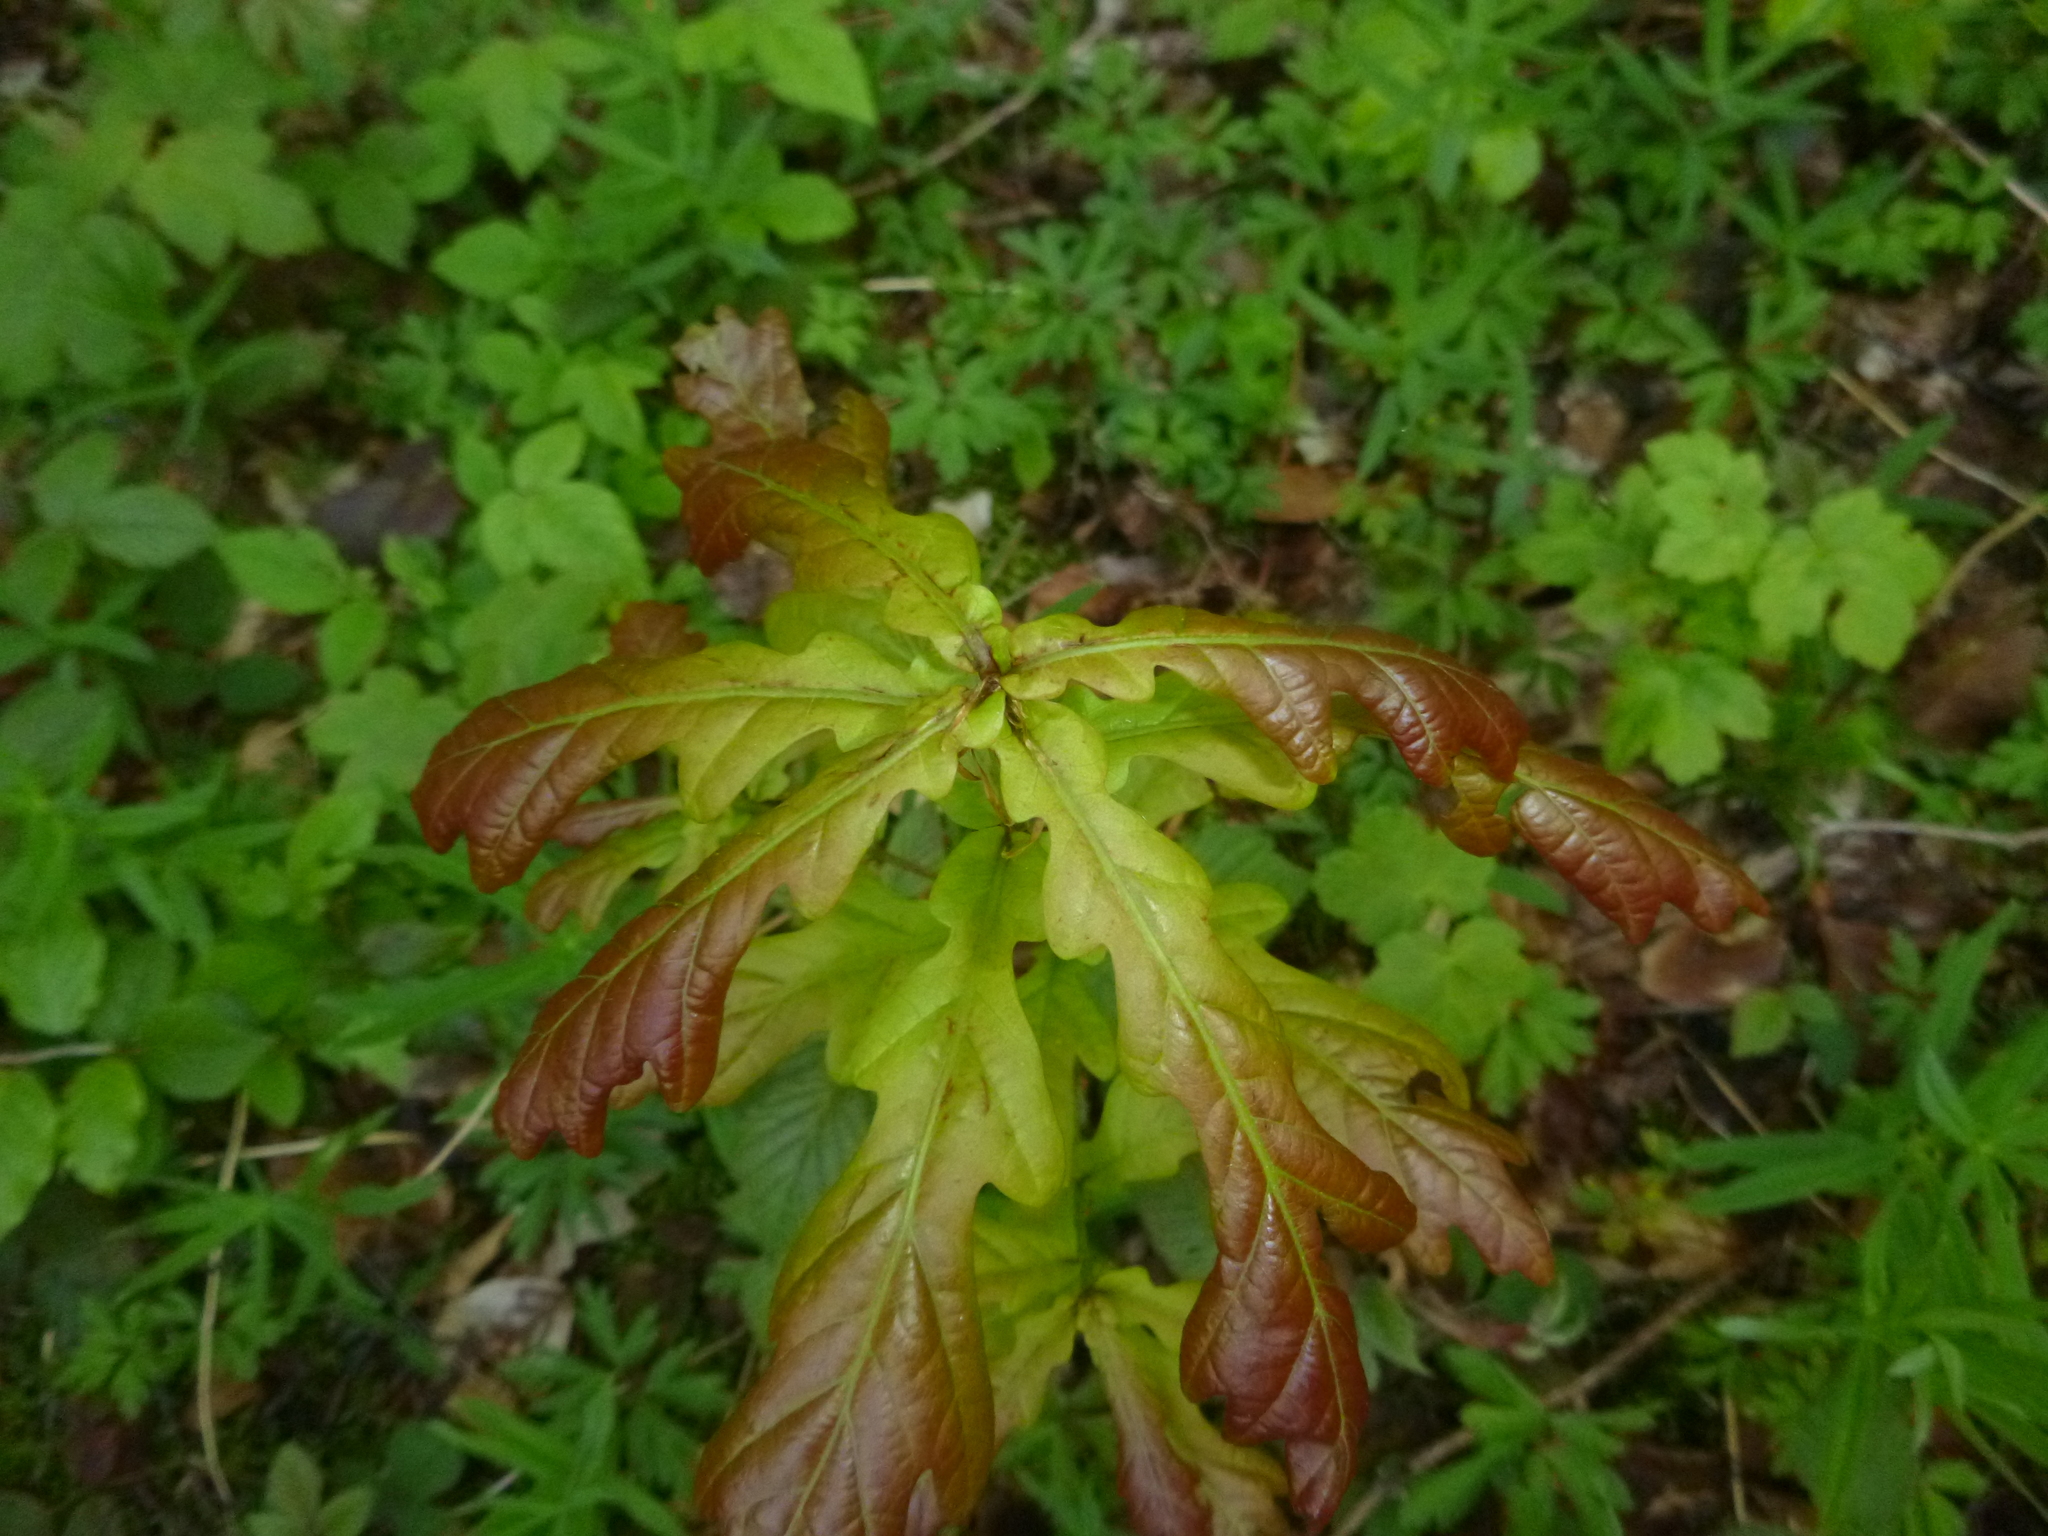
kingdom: Plantae
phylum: Tracheophyta
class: Magnoliopsida
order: Fagales
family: Fagaceae
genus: Quercus
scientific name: Quercus robur
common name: Pedunculate oak
